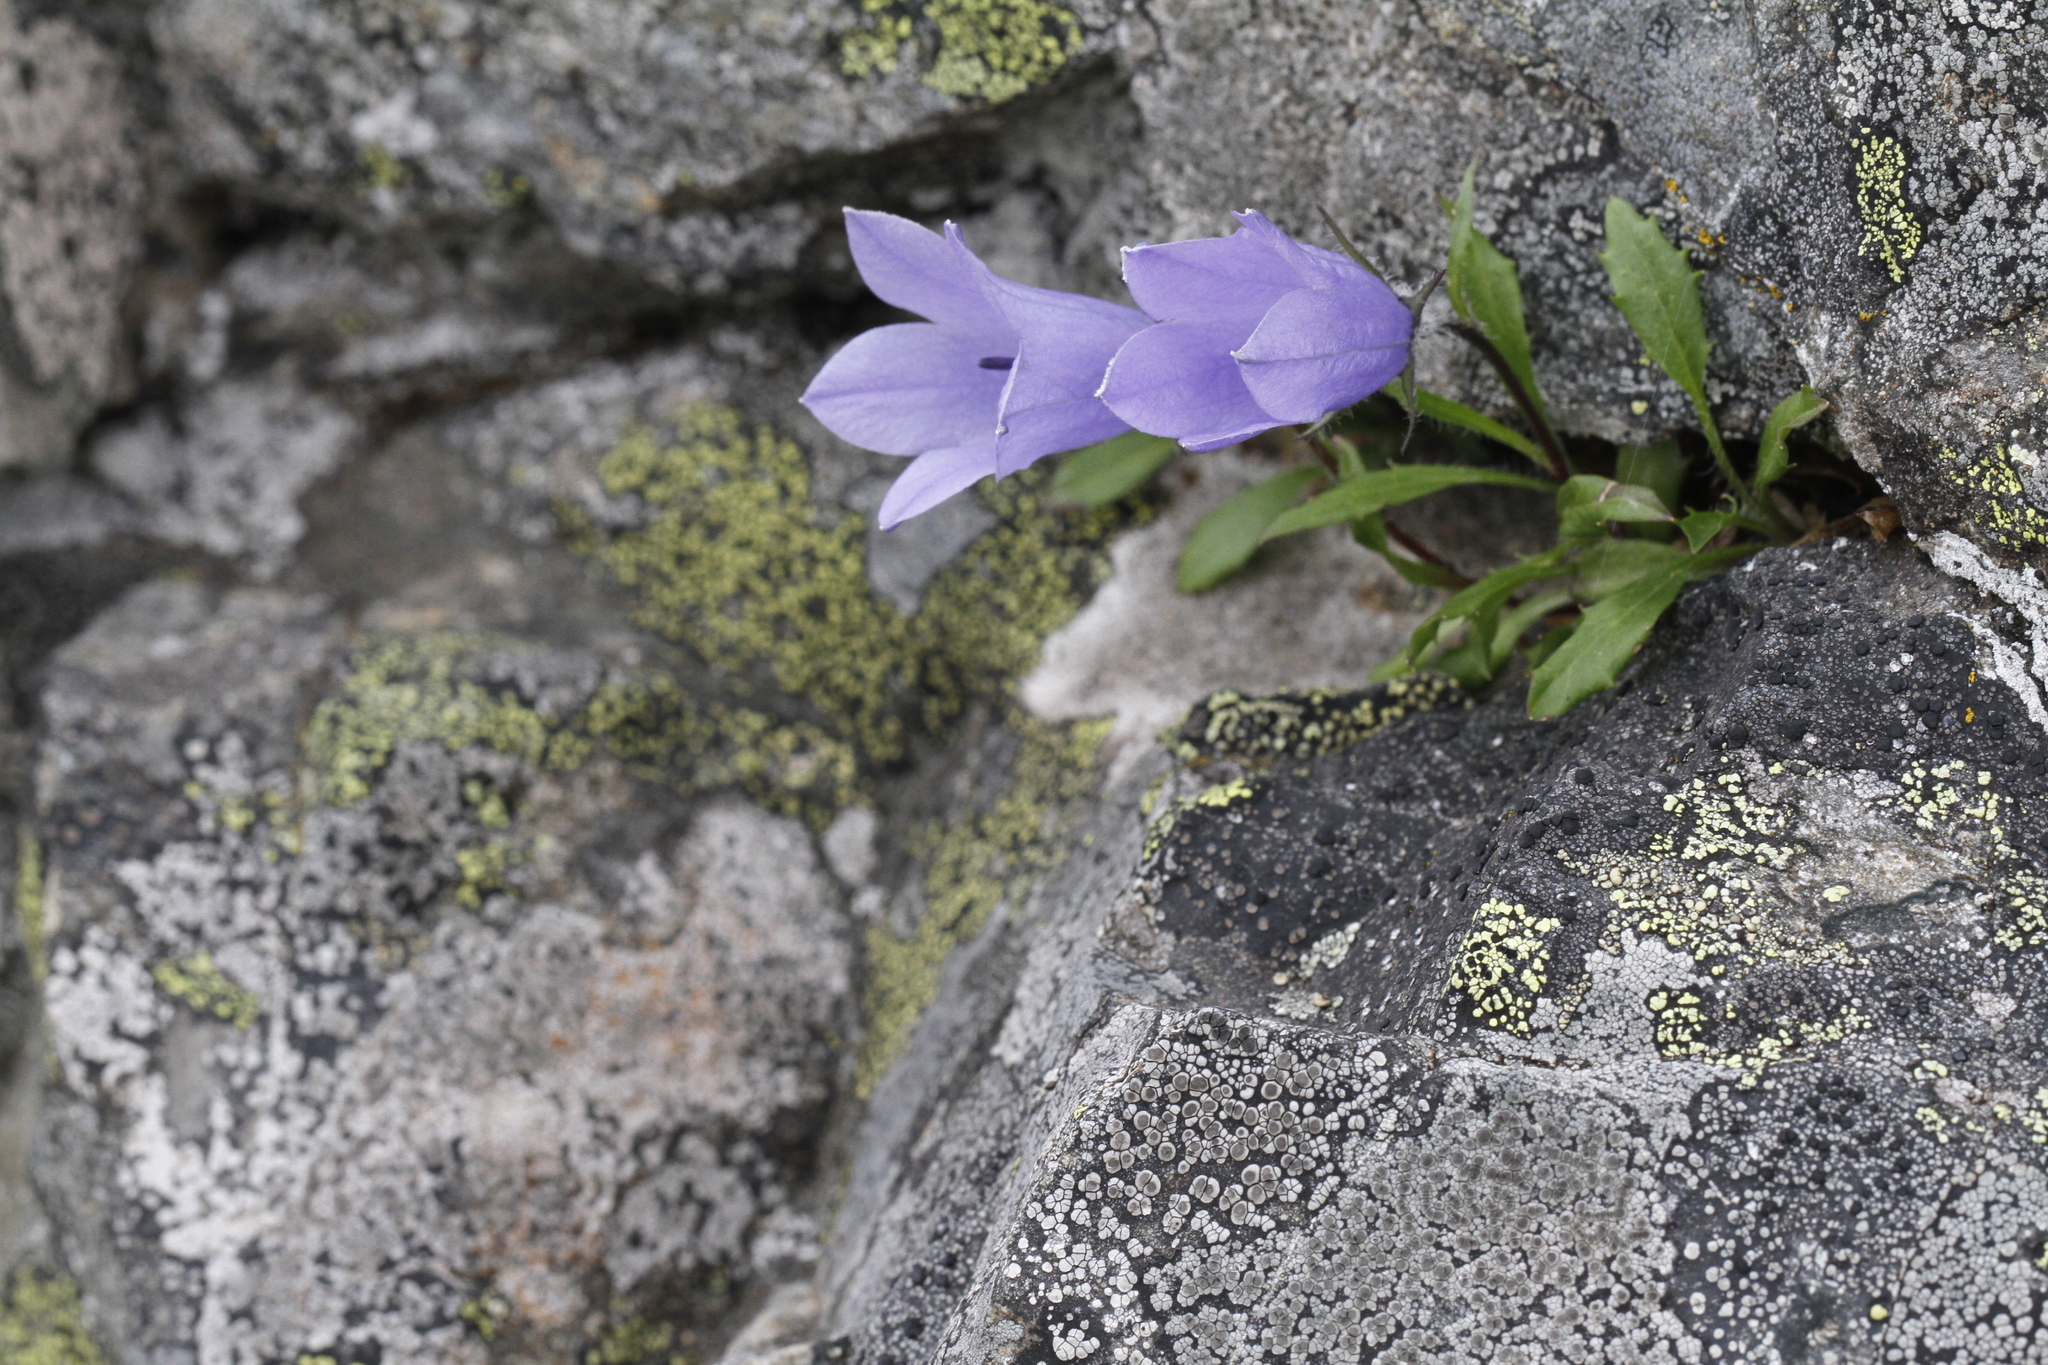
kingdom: Plantae
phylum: Tracheophyta
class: Magnoliopsida
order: Asterales
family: Campanulaceae
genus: Campanula
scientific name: Campanula lasiocarpa
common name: Mountain harebell
